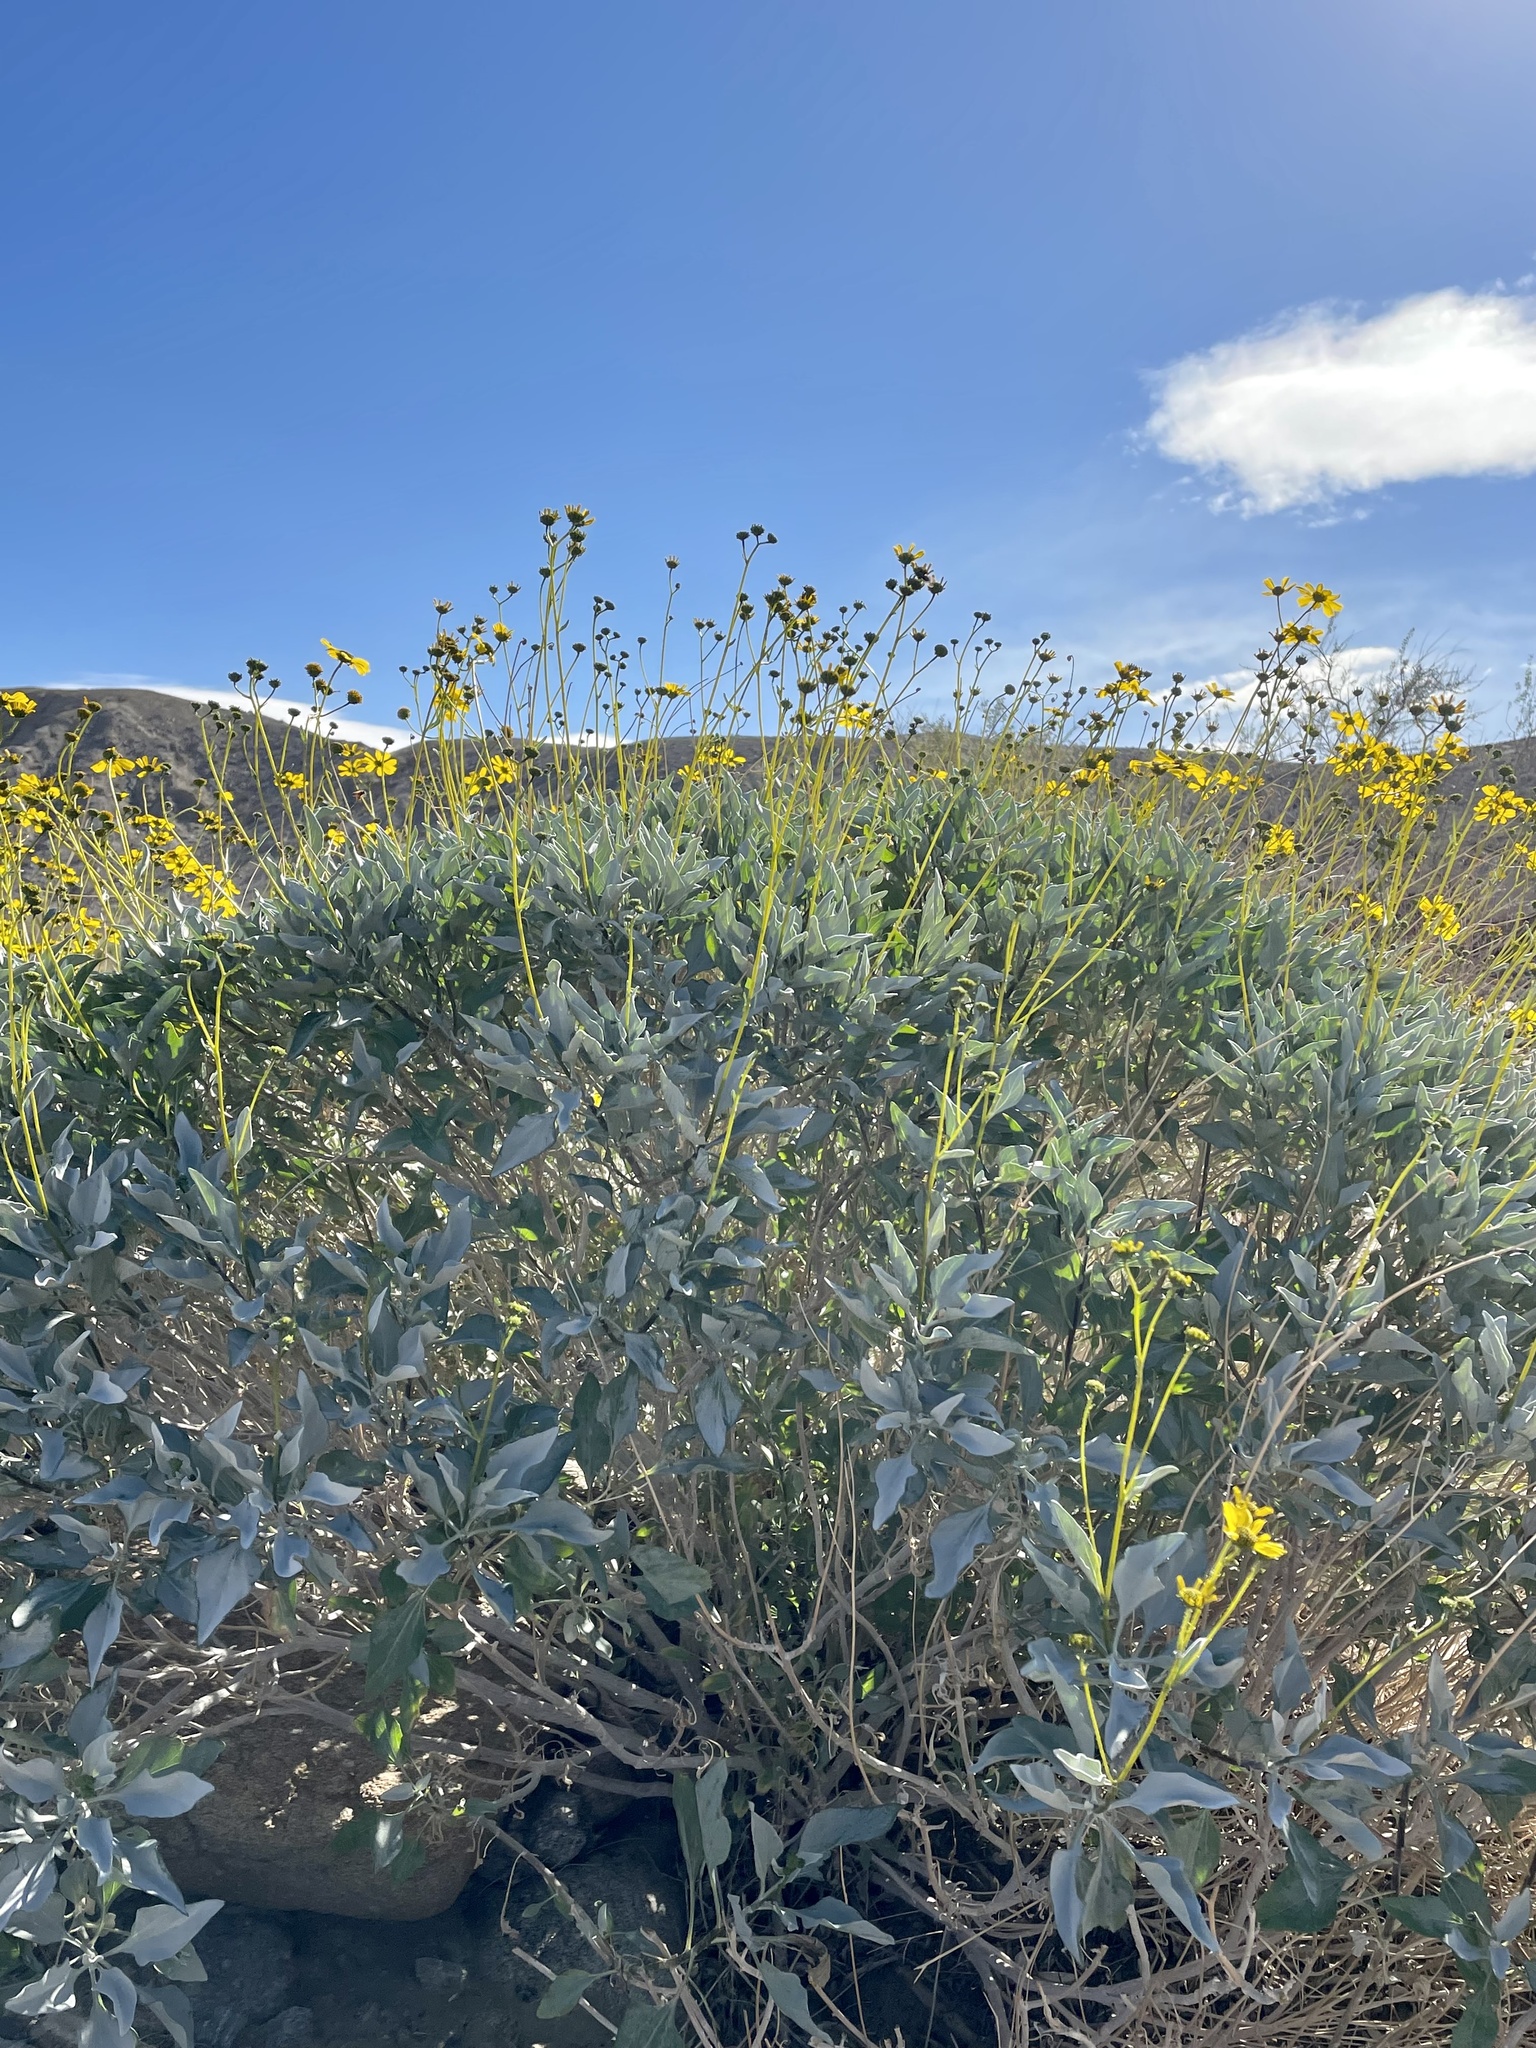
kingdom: Plantae
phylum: Tracheophyta
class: Magnoliopsida
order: Asterales
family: Asteraceae
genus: Encelia
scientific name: Encelia farinosa
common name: Brittlebush
